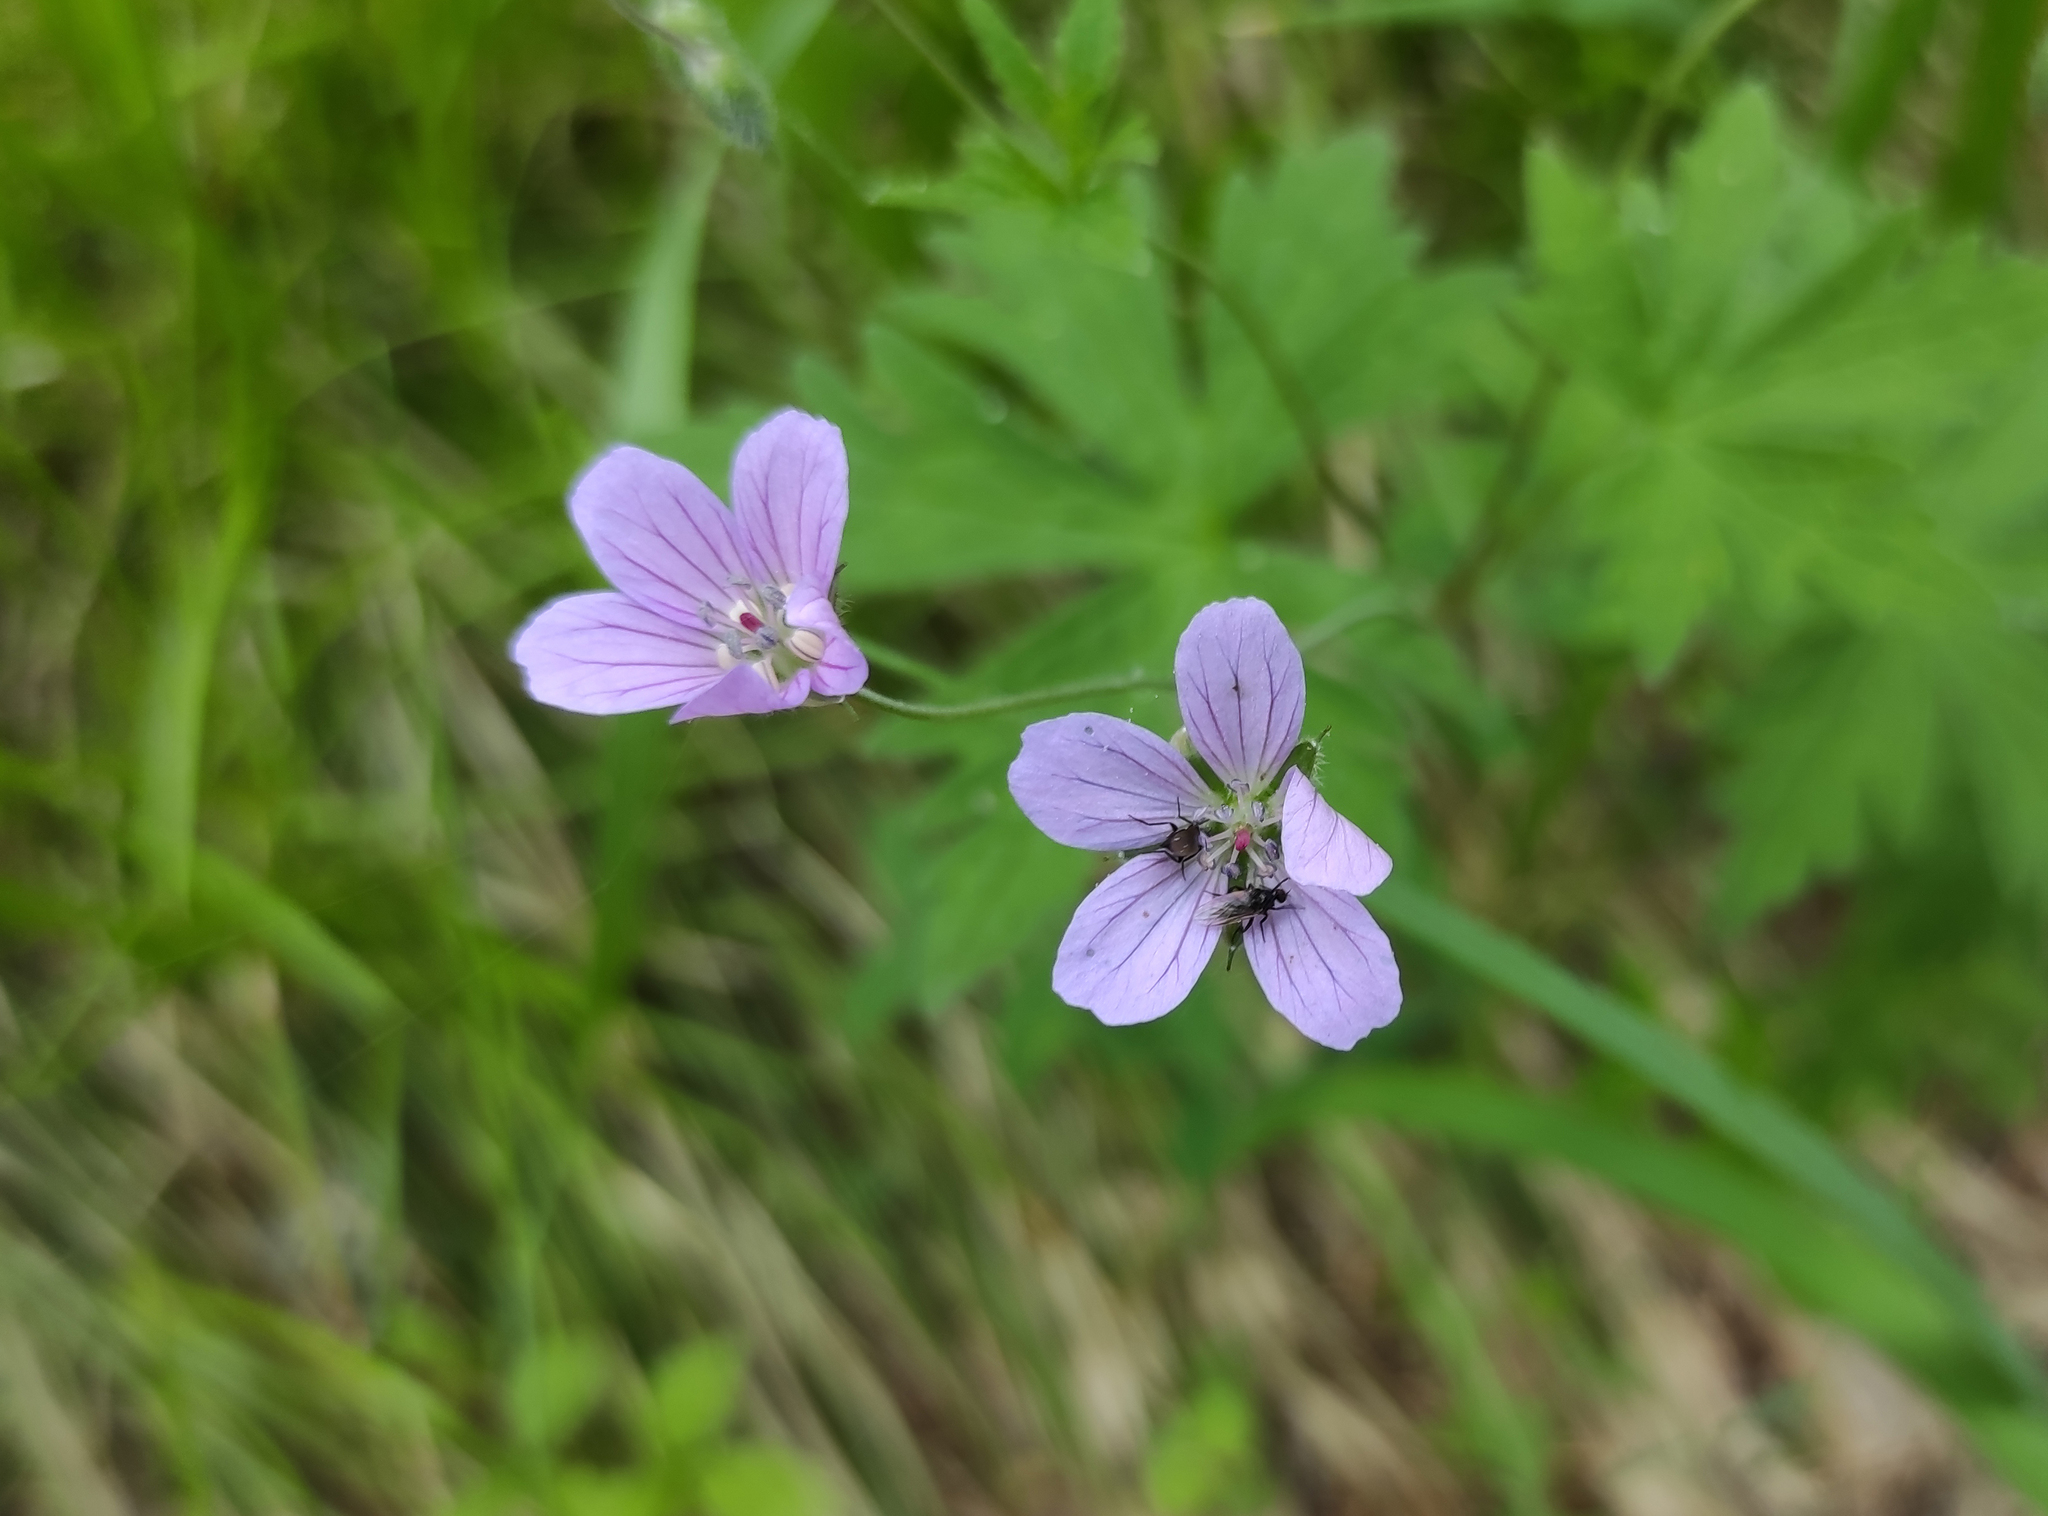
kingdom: Plantae
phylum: Tracheophyta
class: Magnoliopsida
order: Geraniales
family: Geraniaceae
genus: Geranium
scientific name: Geranium pseudosibiricum
